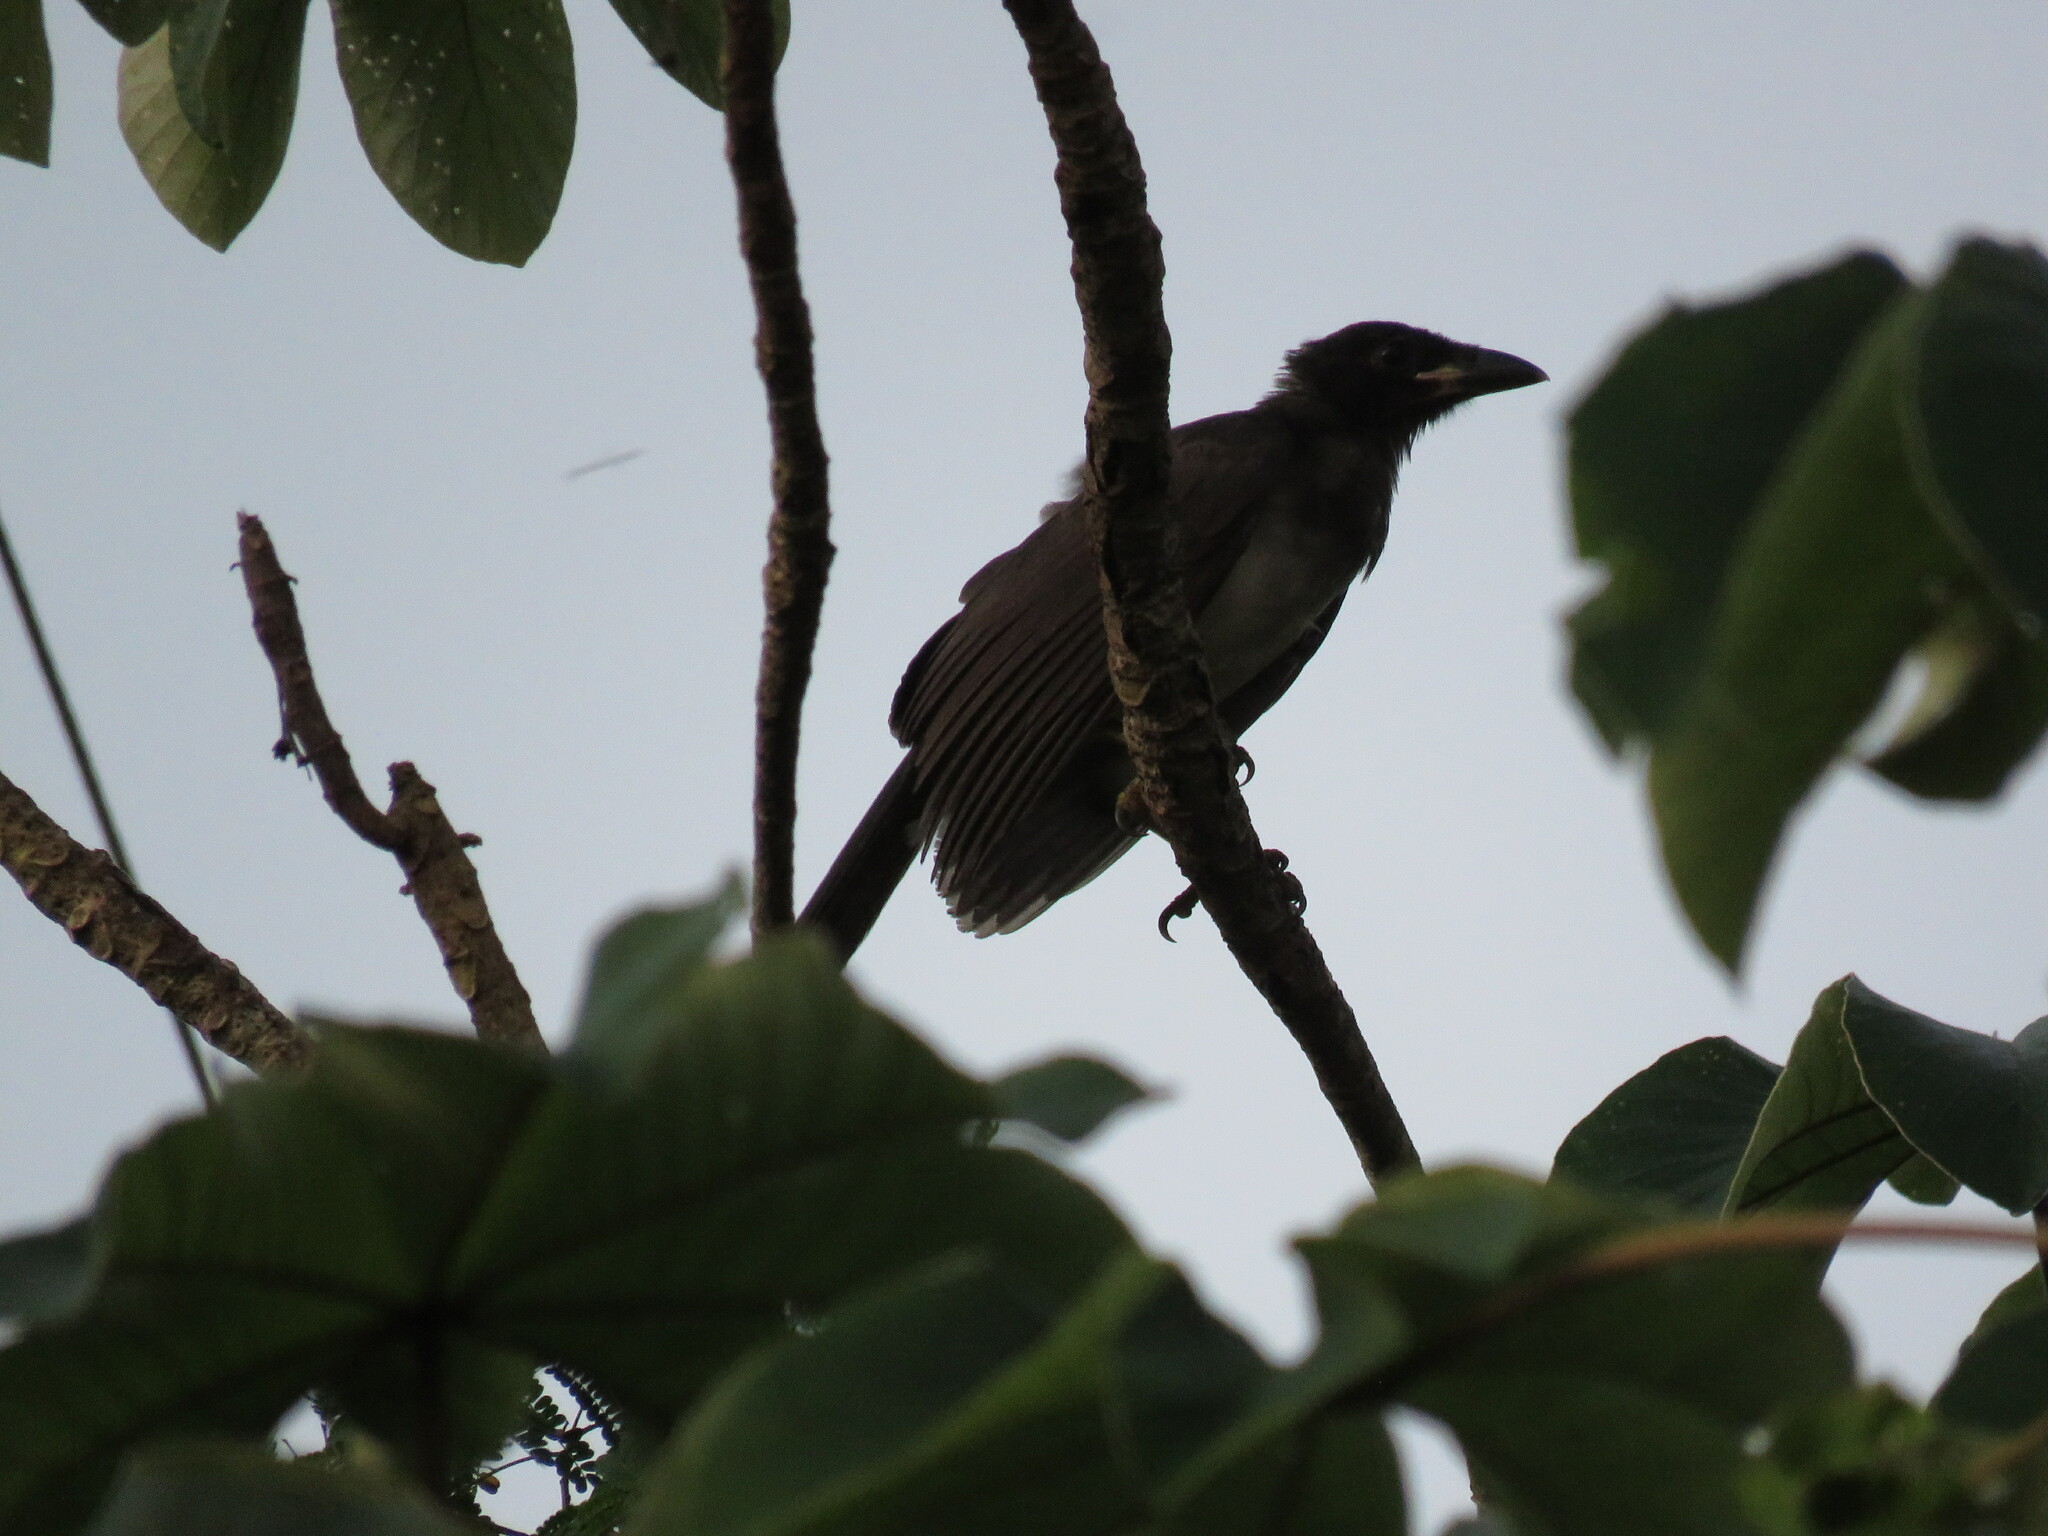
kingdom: Animalia
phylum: Chordata
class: Aves
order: Passeriformes
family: Corvidae
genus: Psilorhinus
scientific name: Psilorhinus morio
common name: Brown jay
